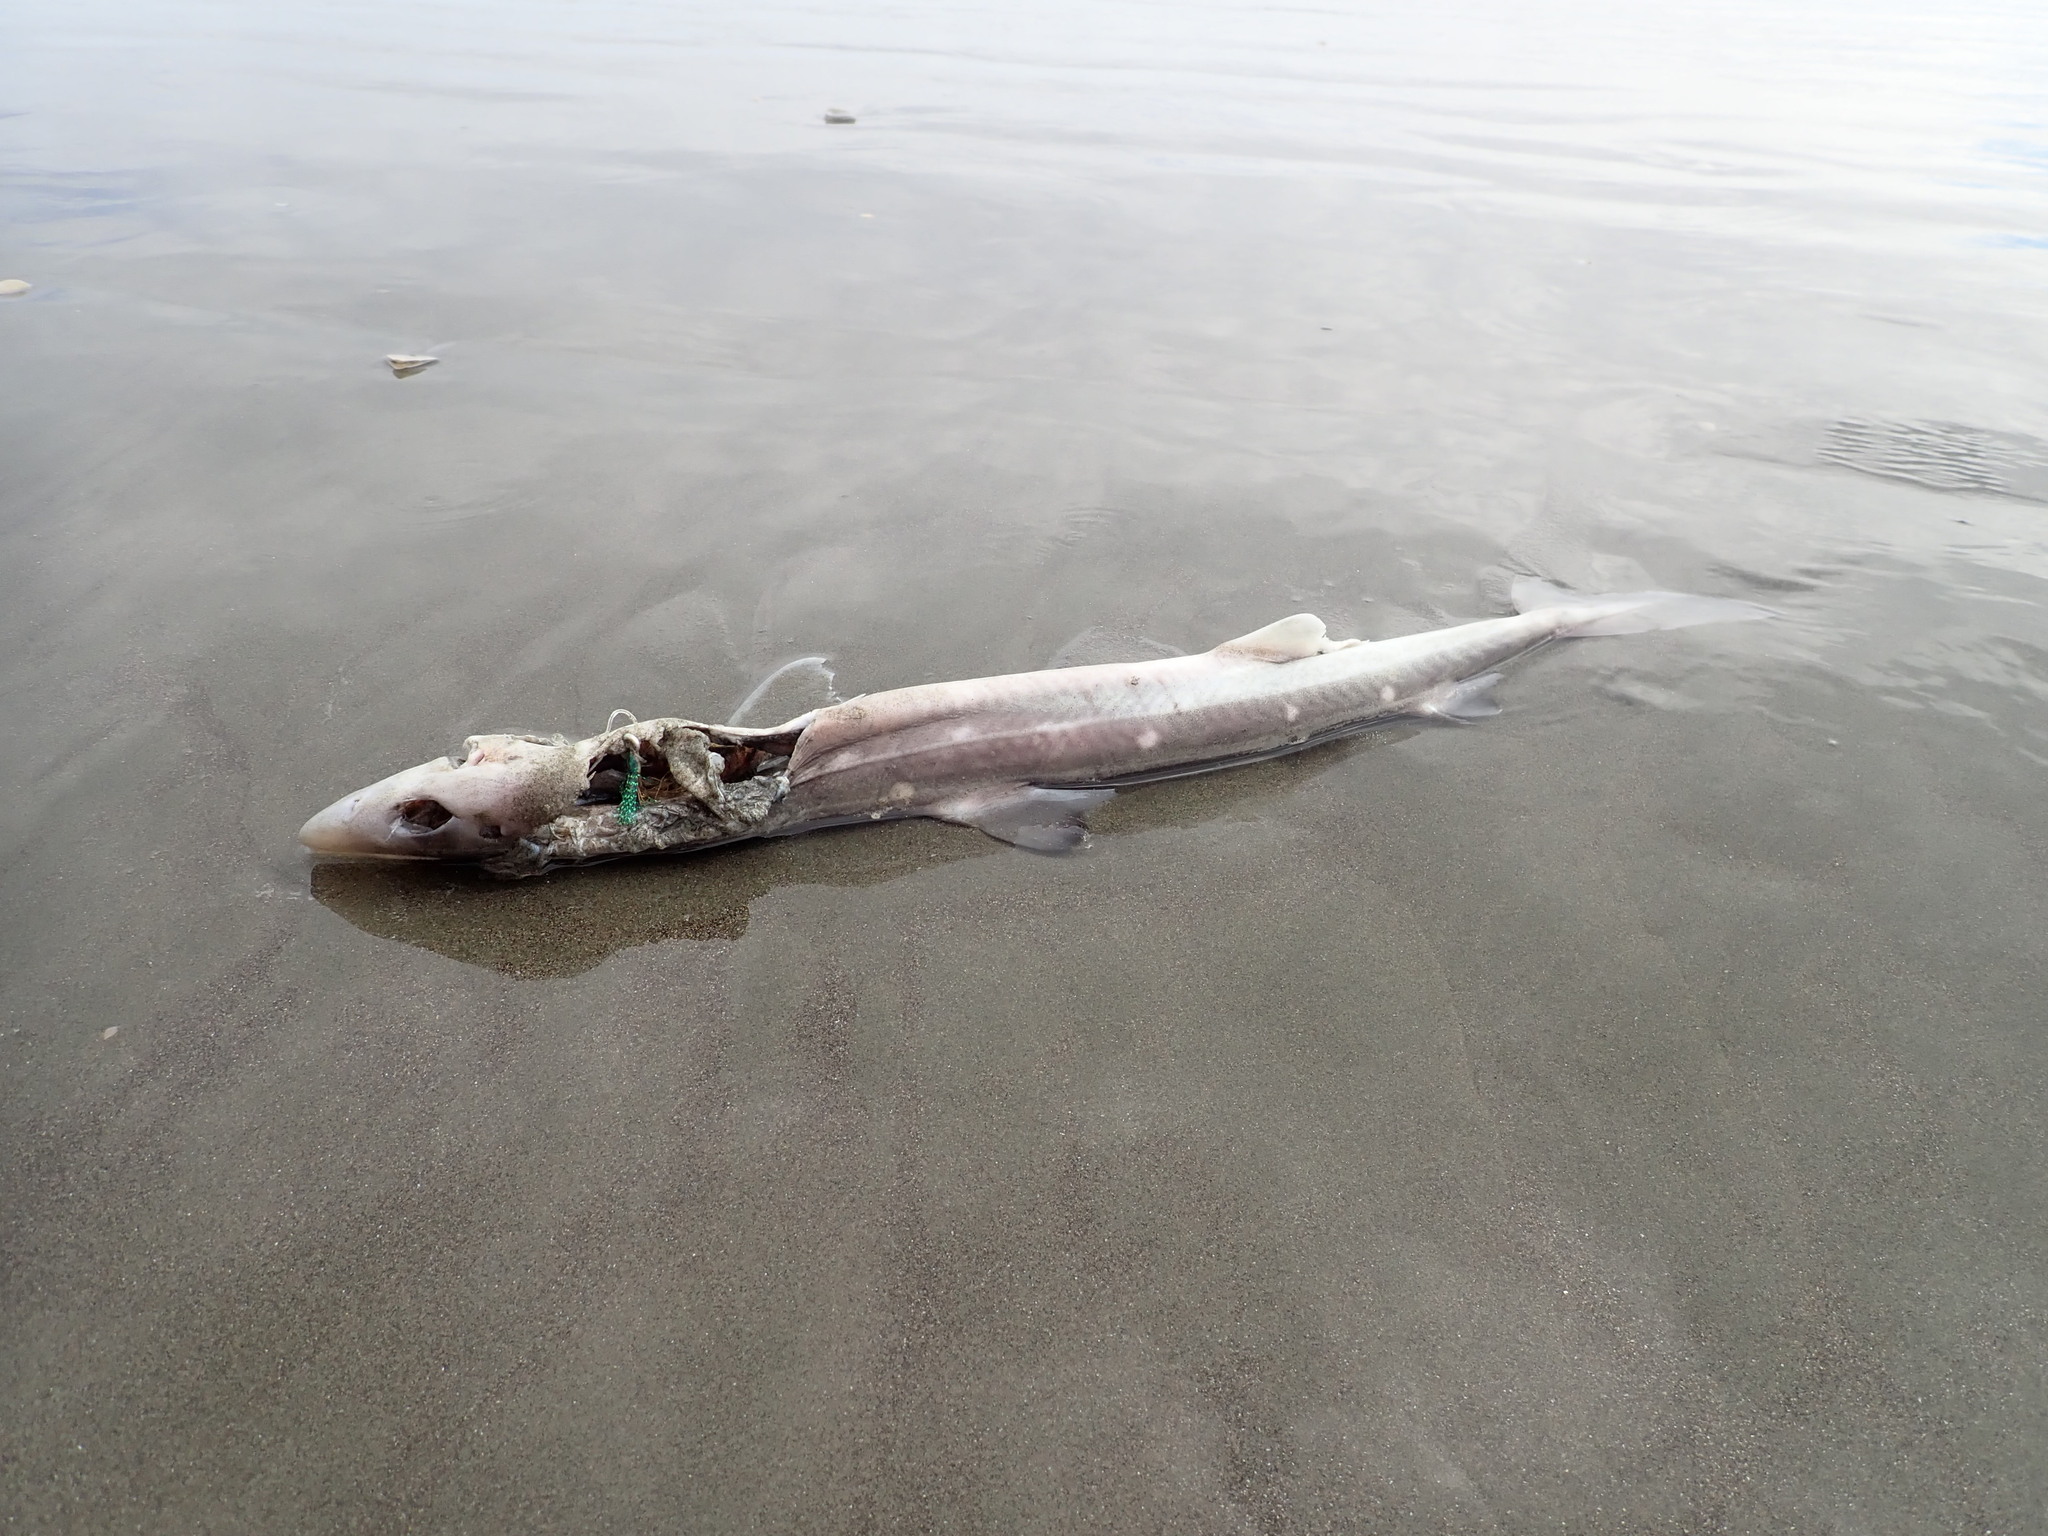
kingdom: Animalia
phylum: Chordata
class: Elasmobranchii
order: Squaliformes
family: Squalidae
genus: Squalus
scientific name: Squalus acanthias
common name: Spurdog
